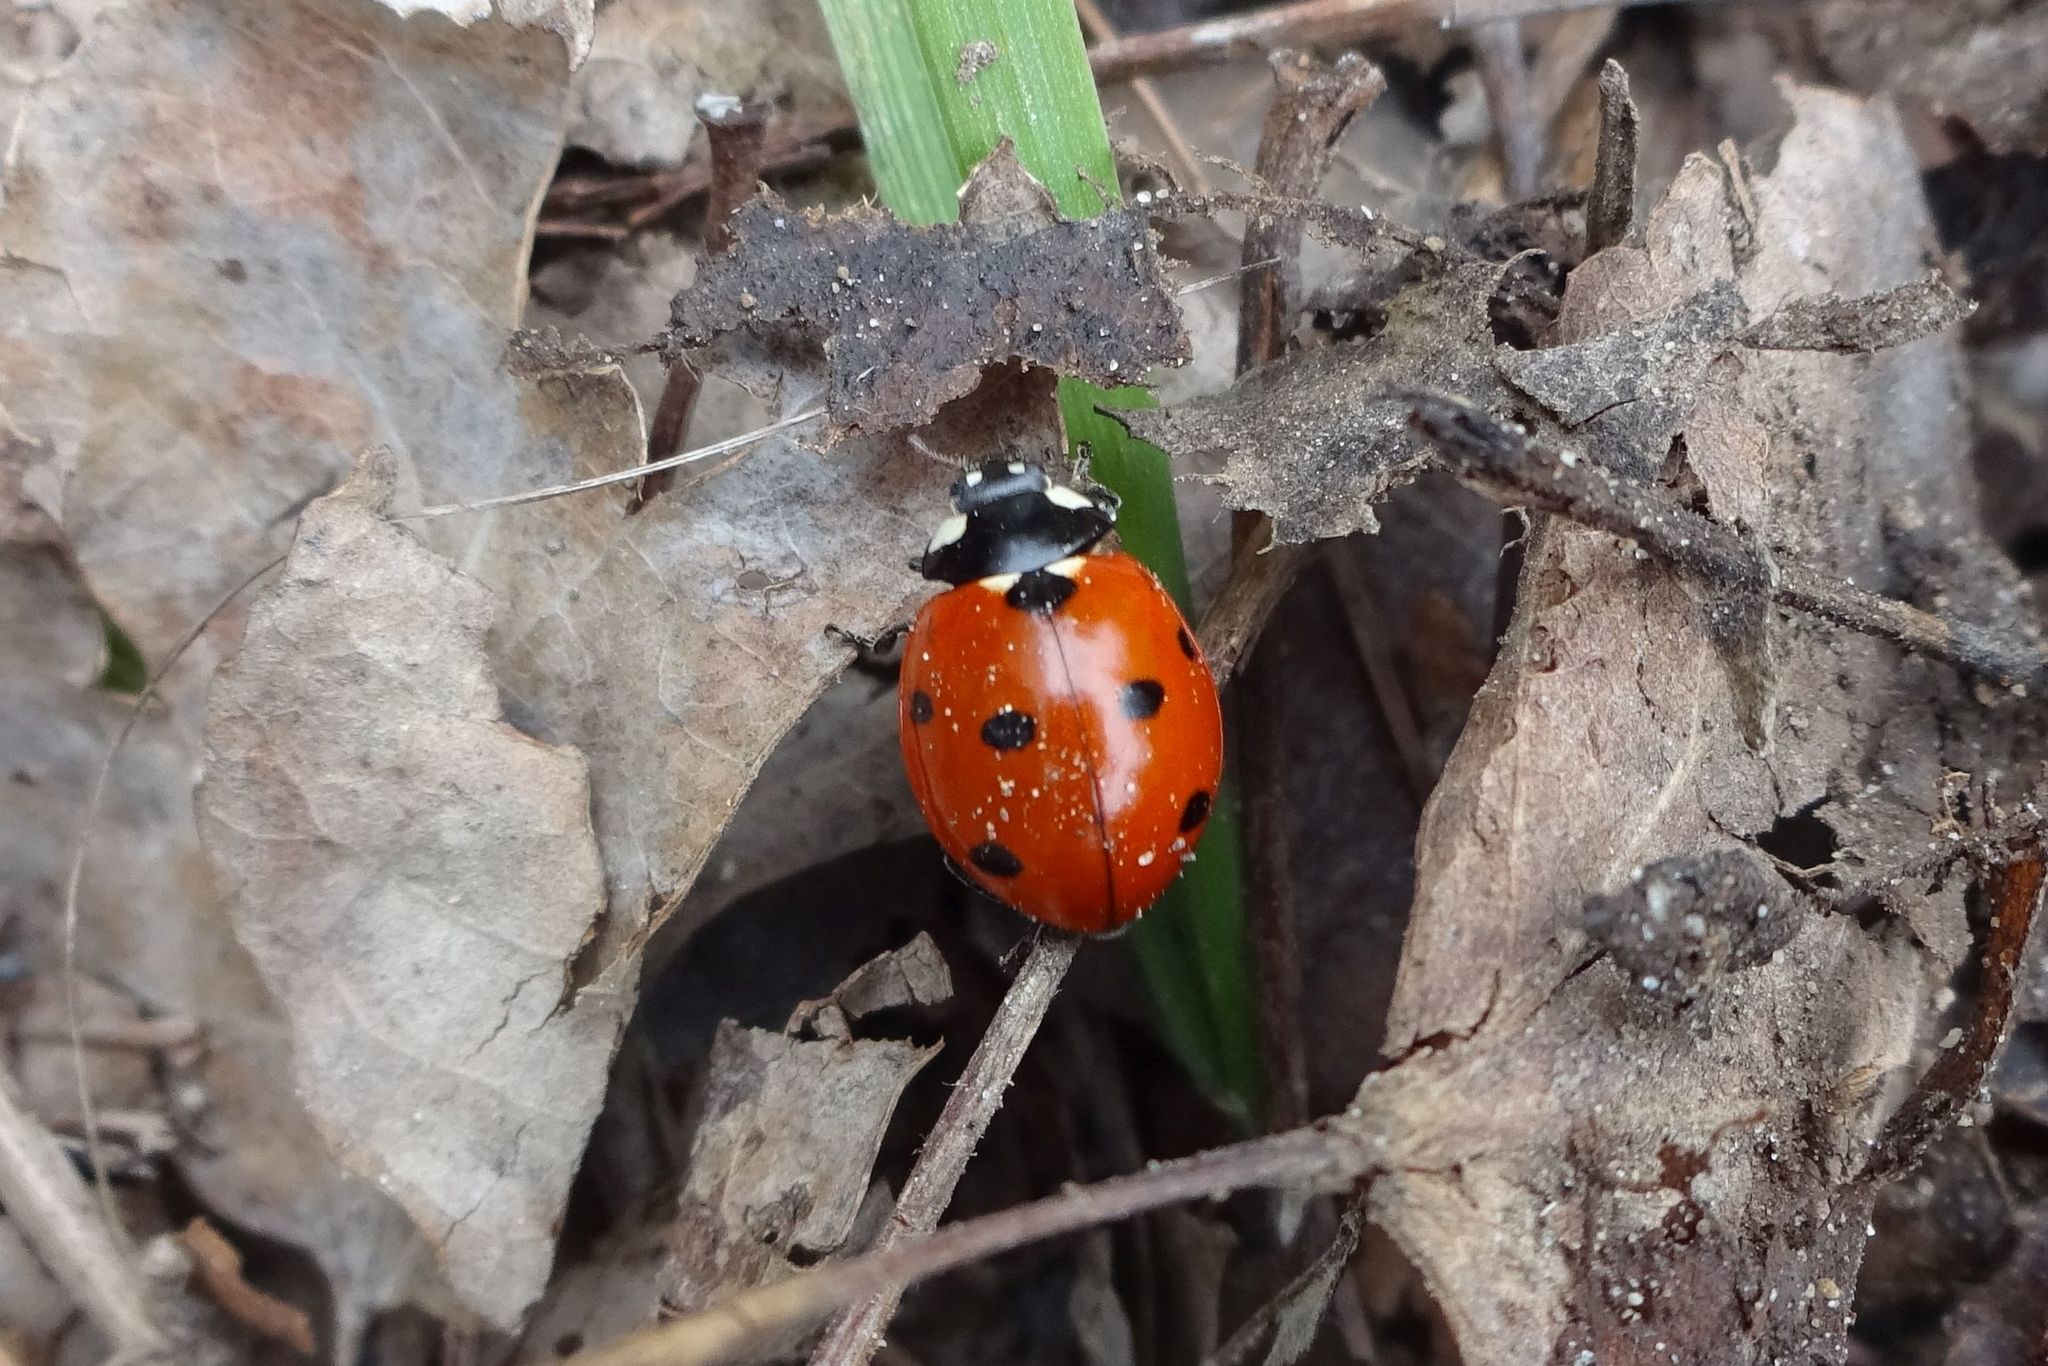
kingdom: Animalia
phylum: Arthropoda
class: Insecta
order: Coleoptera
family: Coccinellidae
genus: Coccinella
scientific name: Coccinella septempunctata
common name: Sevenspotted lady beetle
